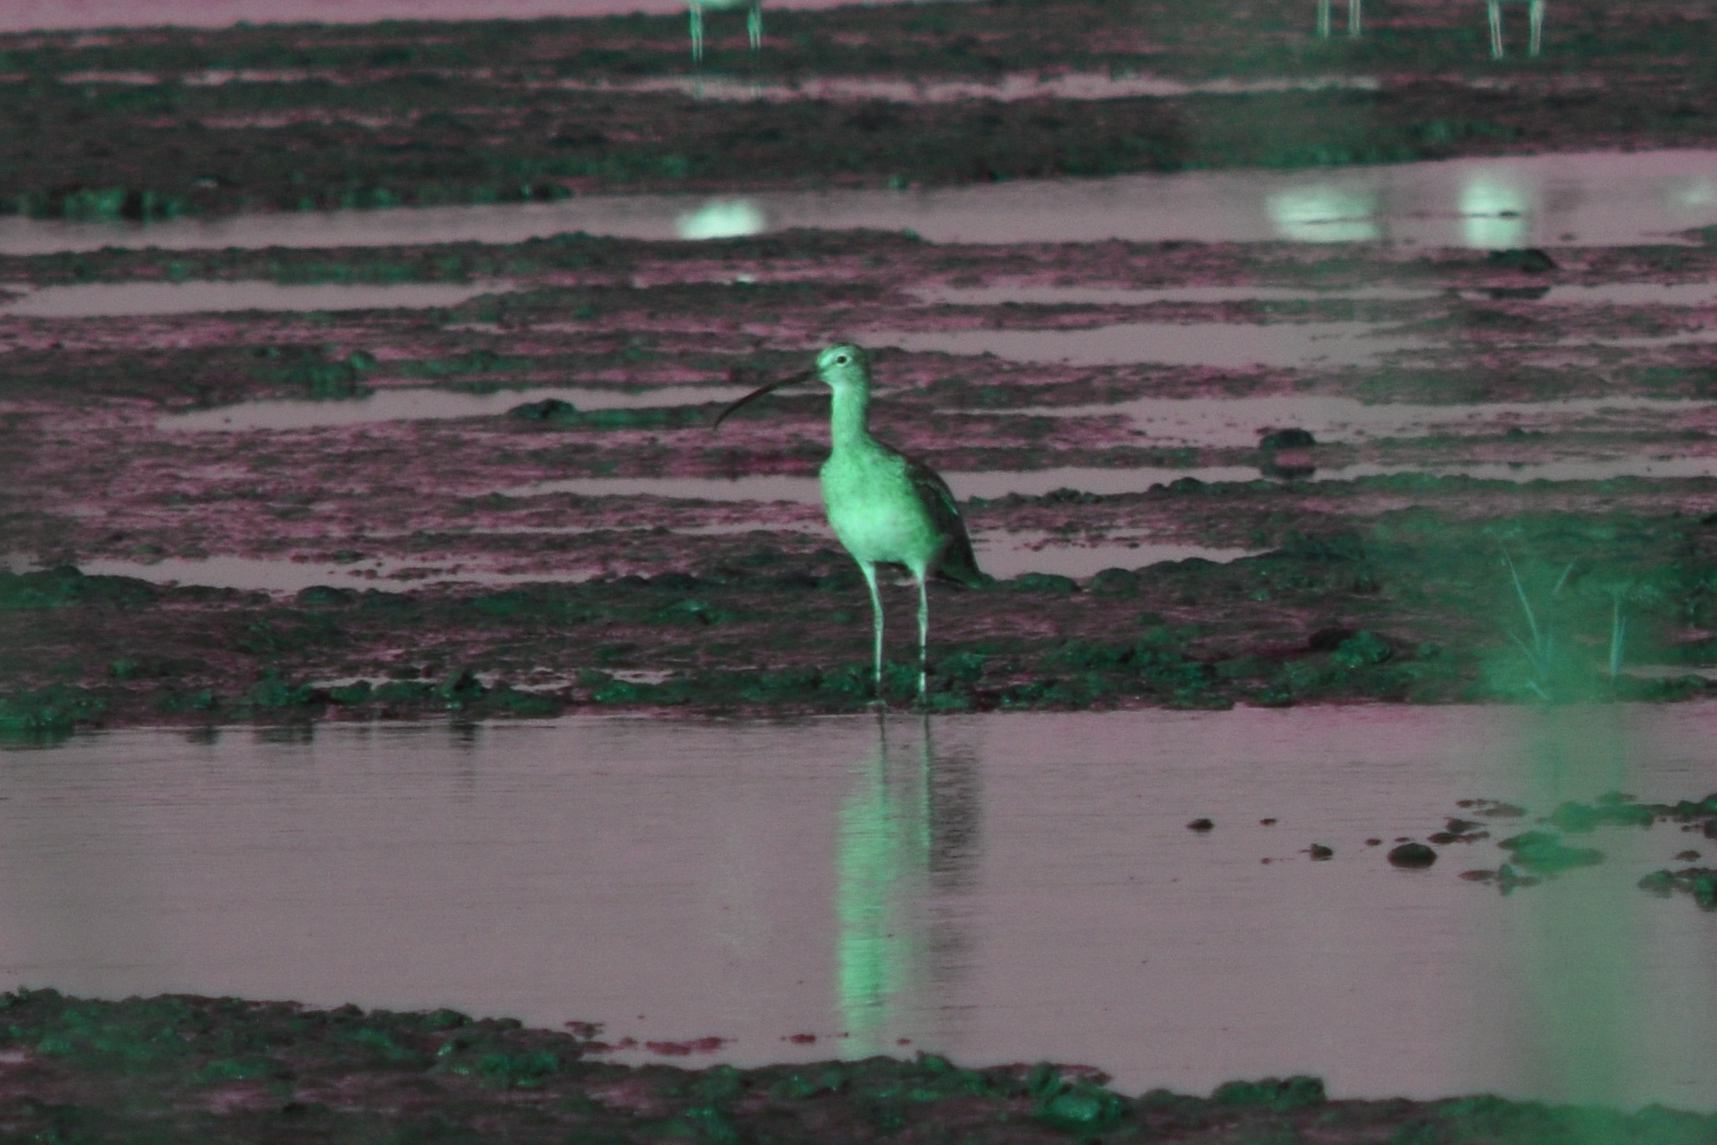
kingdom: Animalia
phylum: Chordata
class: Aves
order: Charadriiformes
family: Scolopacidae
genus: Numenius
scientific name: Numenius americanus
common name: Long-billed curlew
